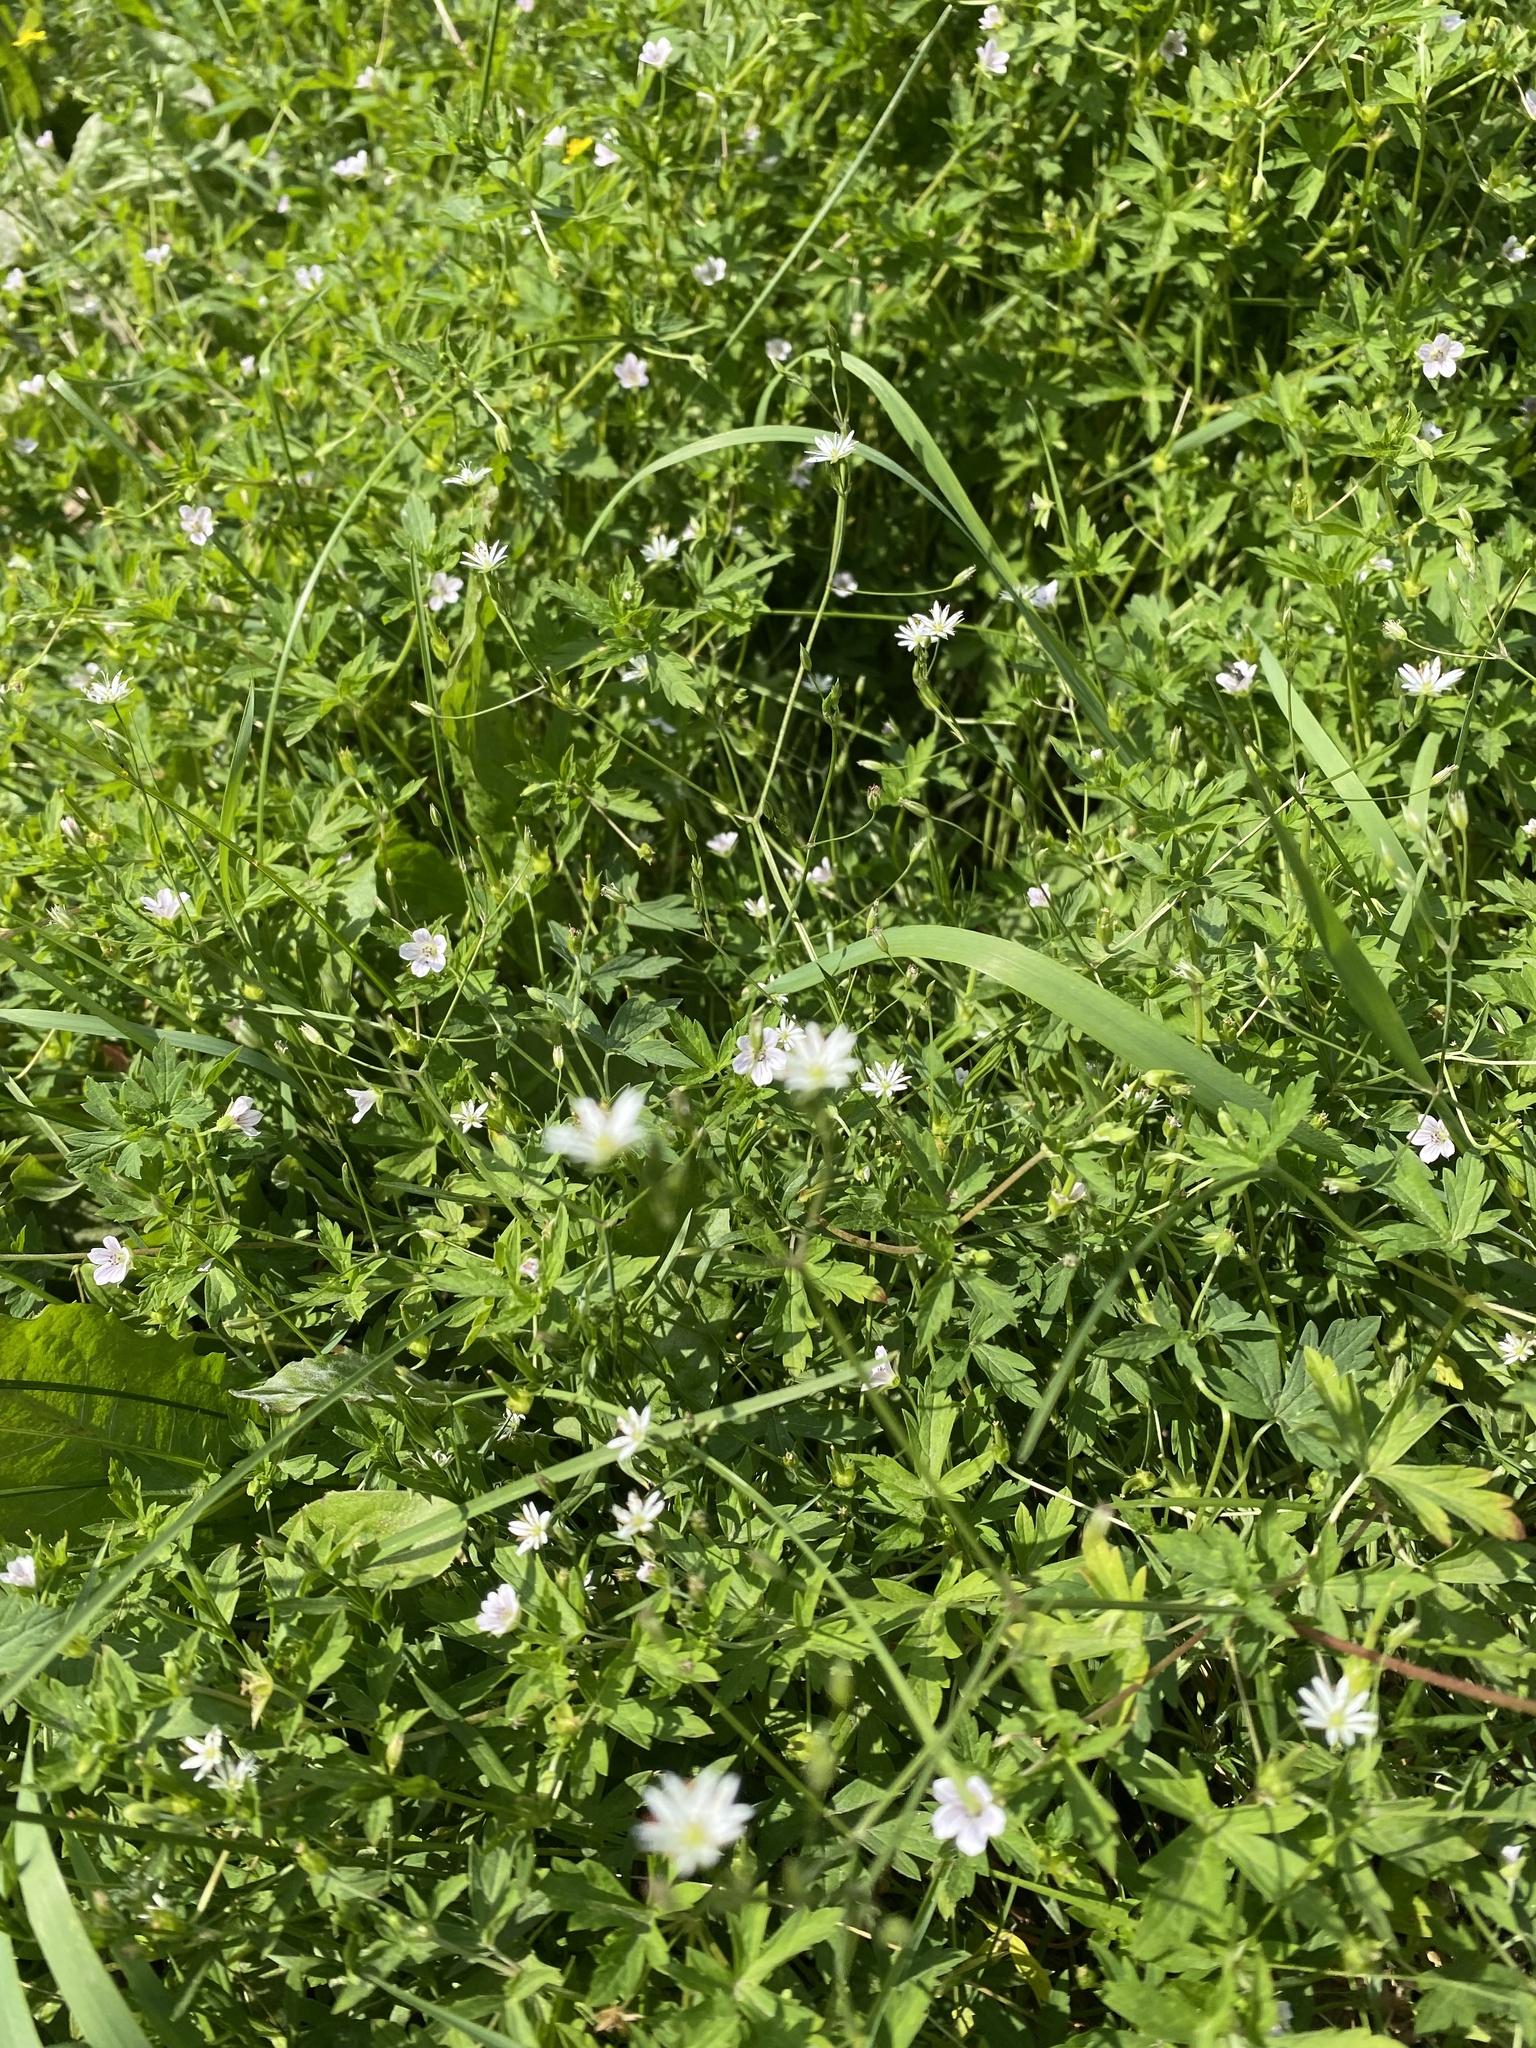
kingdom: Plantae
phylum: Tracheophyta
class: Magnoliopsida
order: Caryophyllales
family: Caryophyllaceae
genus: Stellaria
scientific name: Stellaria graminea
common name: Grass-like starwort
